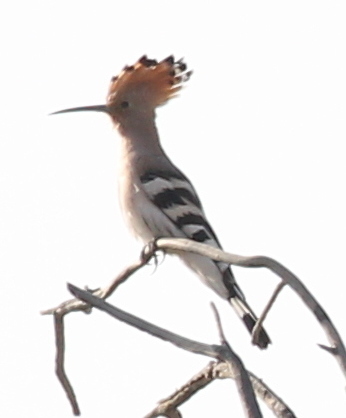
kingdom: Animalia
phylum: Chordata
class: Aves
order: Bucerotiformes
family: Upupidae
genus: Upupa
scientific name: Upupa epops
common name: Eurasian hoopoe
